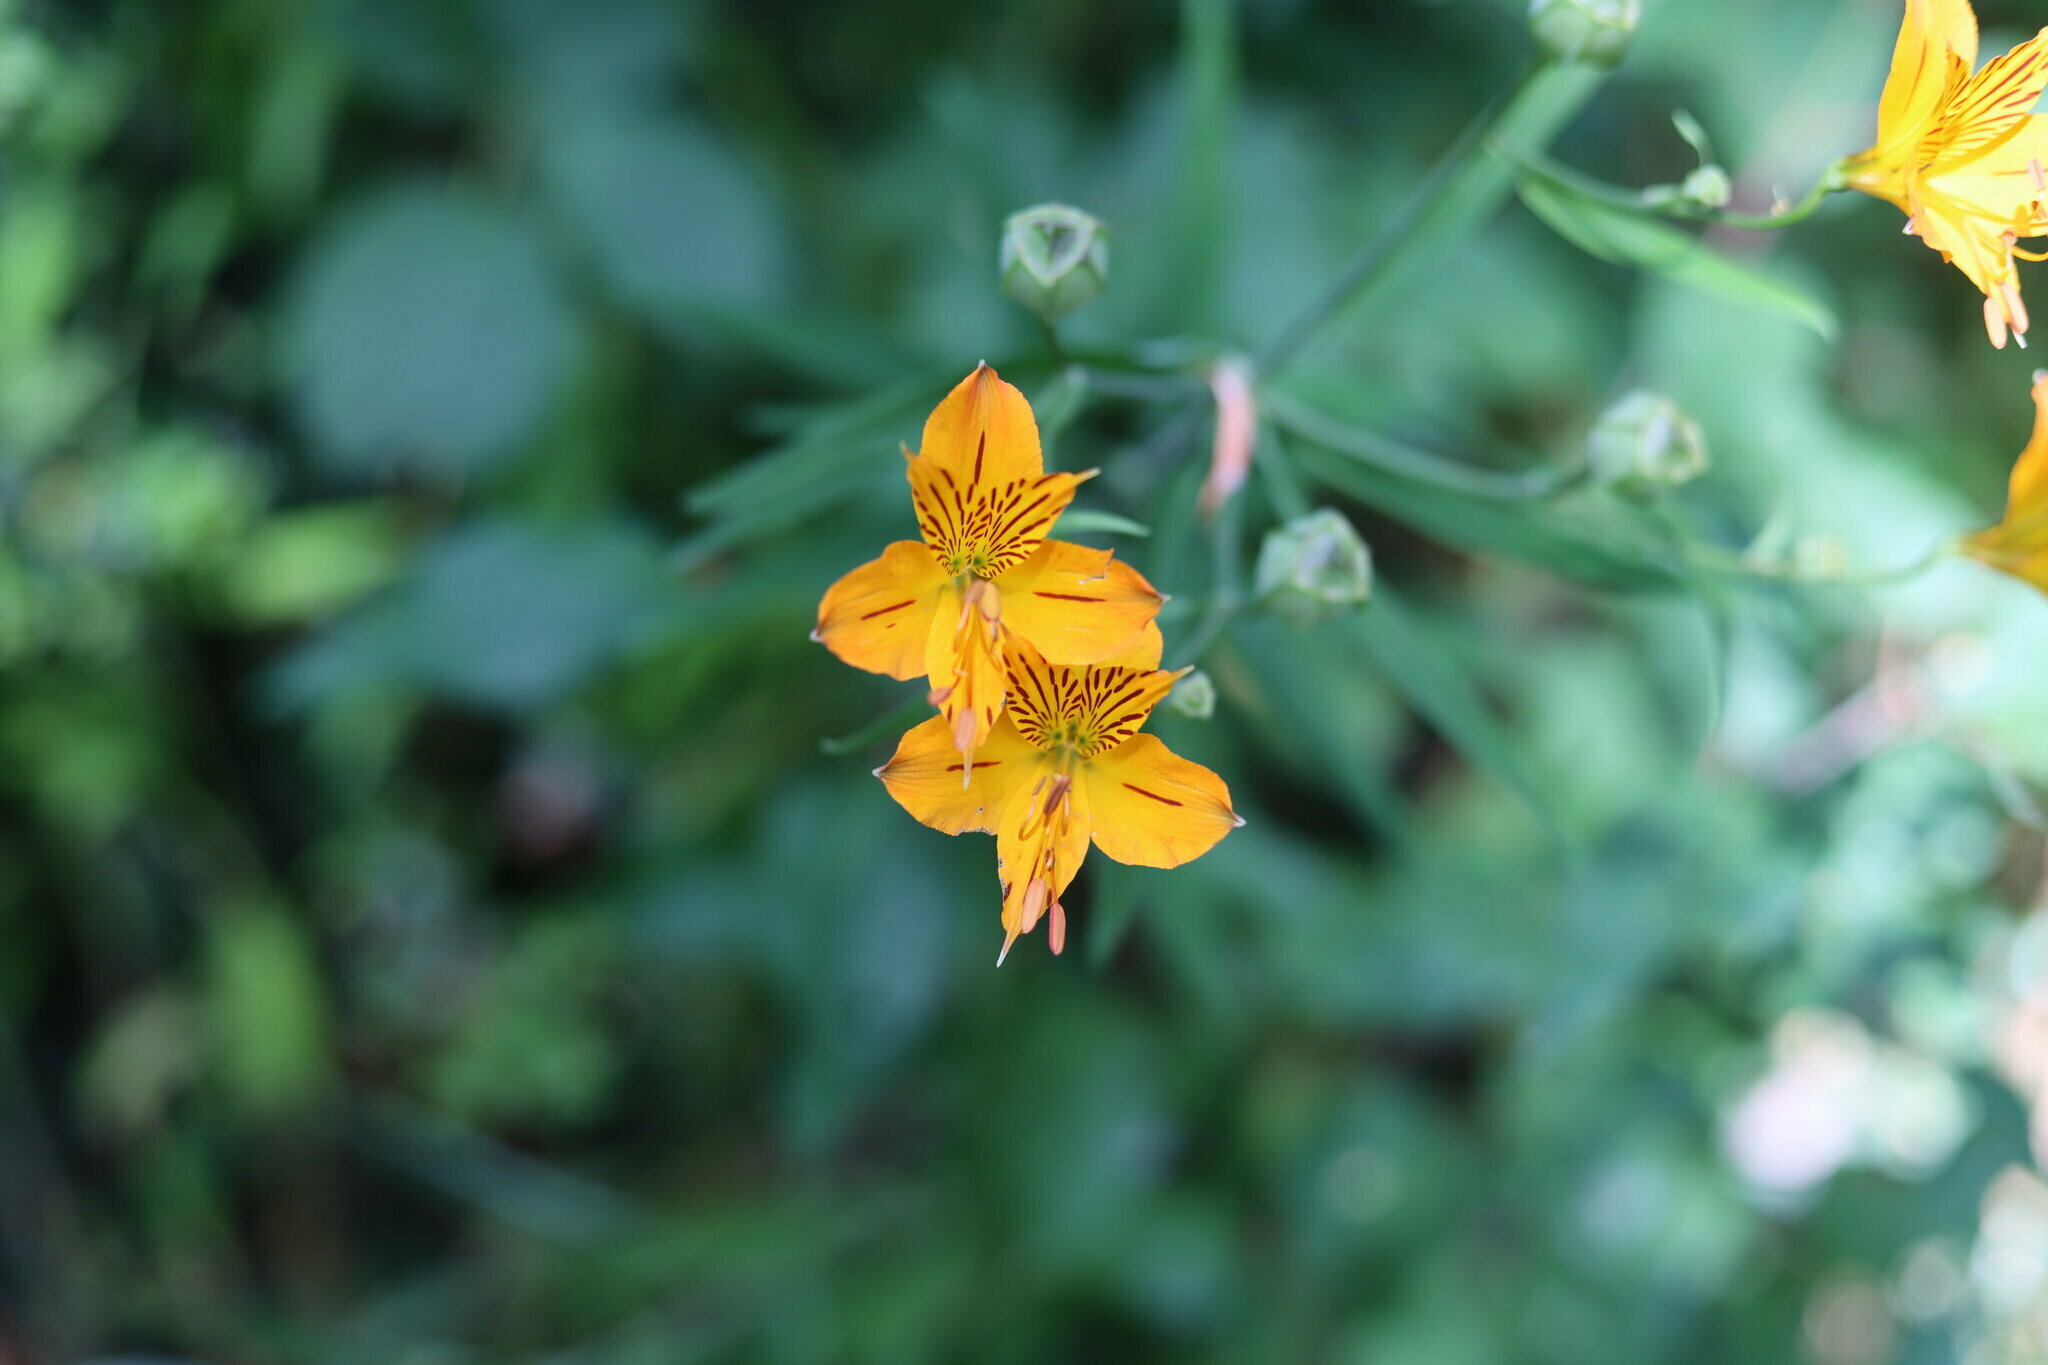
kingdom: Plantae
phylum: Tracheophyta
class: Liliopsida
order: Liliales
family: Alstroemeriaceae
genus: Alstroemeria
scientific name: Alstroemeria aurea
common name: Peruvian lily
